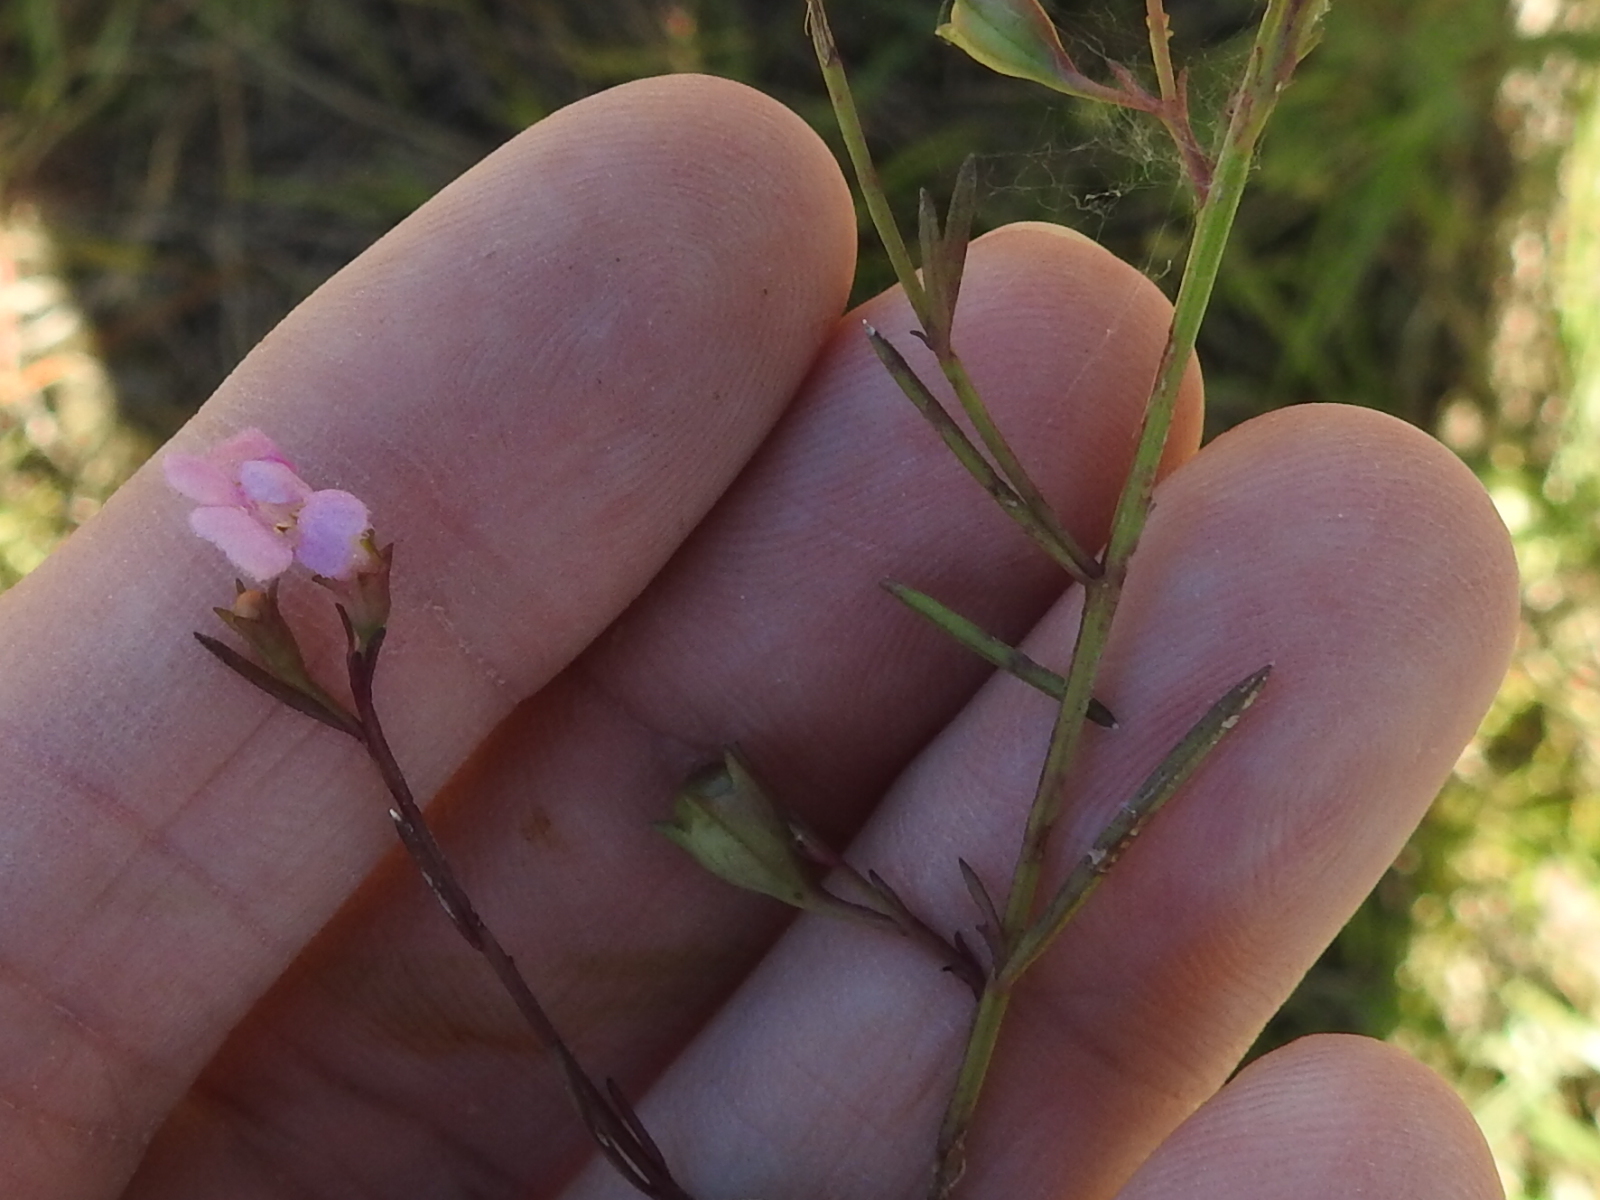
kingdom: Plantae
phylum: Tracheophyta
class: Magnoliopsida
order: Lamiales
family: Orobanchaceae
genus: Agalinis
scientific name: Agalinis viridis
